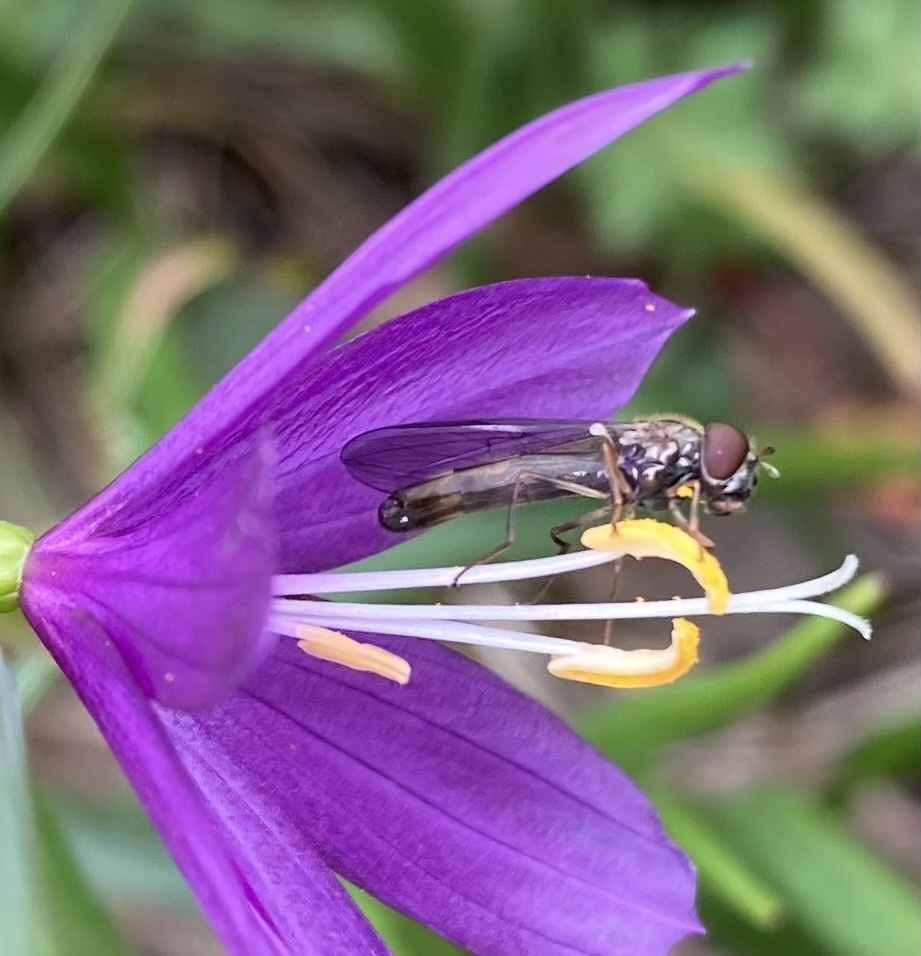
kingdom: Plantae
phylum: Tracheophyta
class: Liliopsida
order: Asparagales
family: Iridaceae
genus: Olsynium
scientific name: Olsynium douglasii
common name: Douglas' grasswidow
